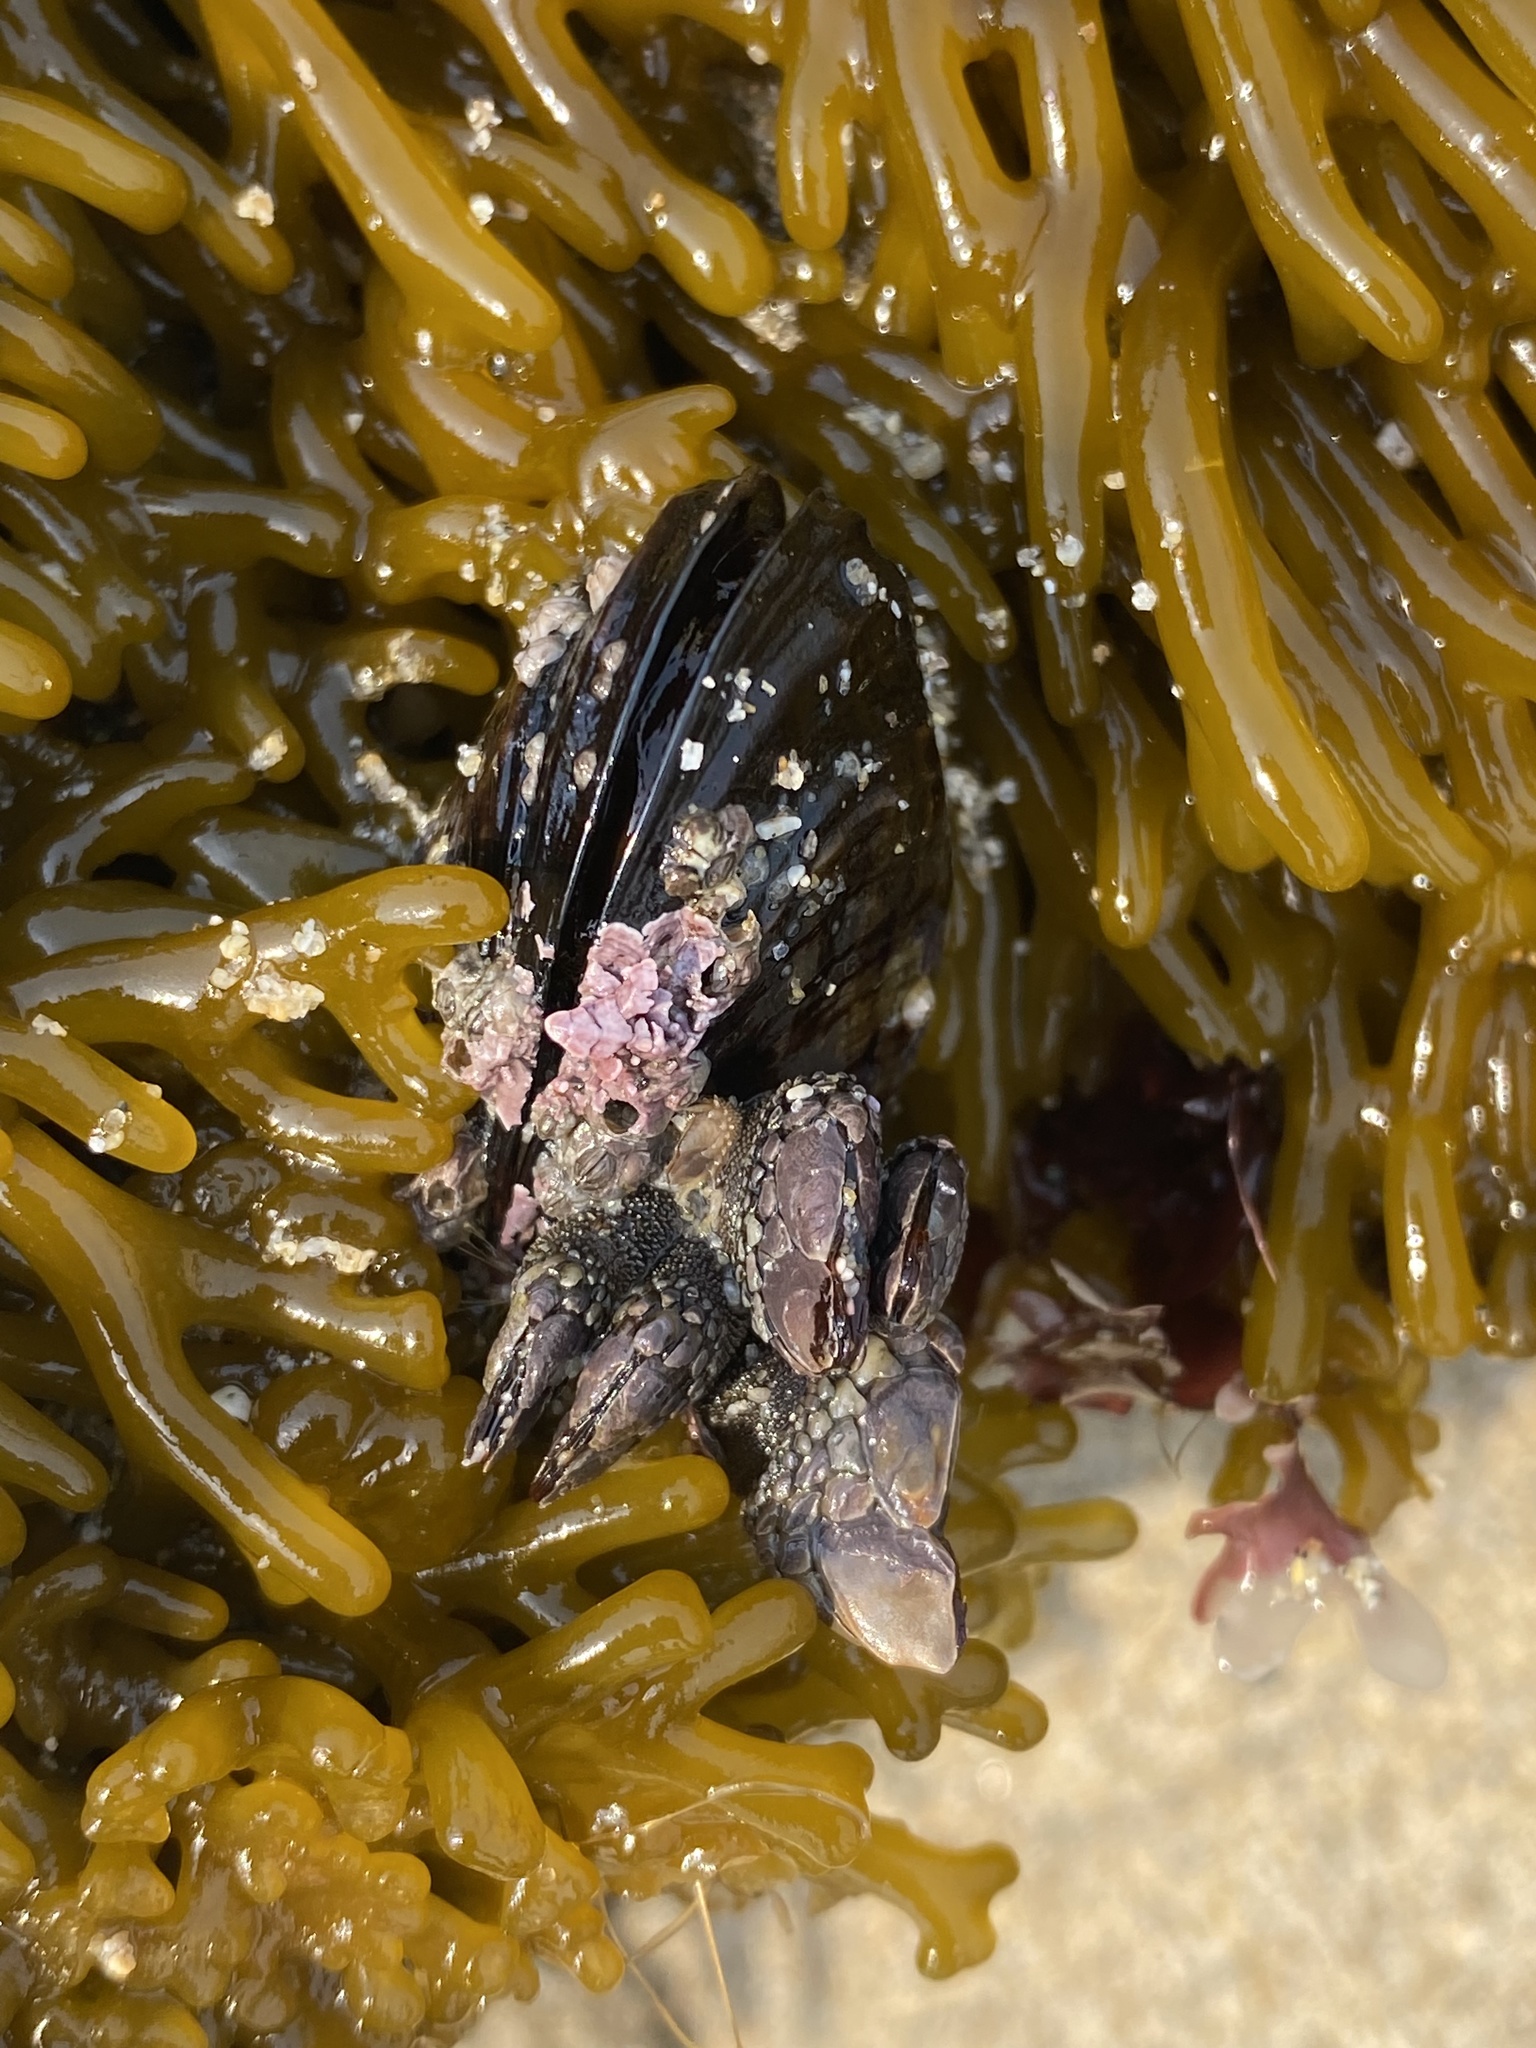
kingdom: Animalia
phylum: Arthropoda
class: Maxillopoda
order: Pedunculata
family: Pollicipedidae
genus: Pollicipes
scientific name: Pollicipes polymerus
